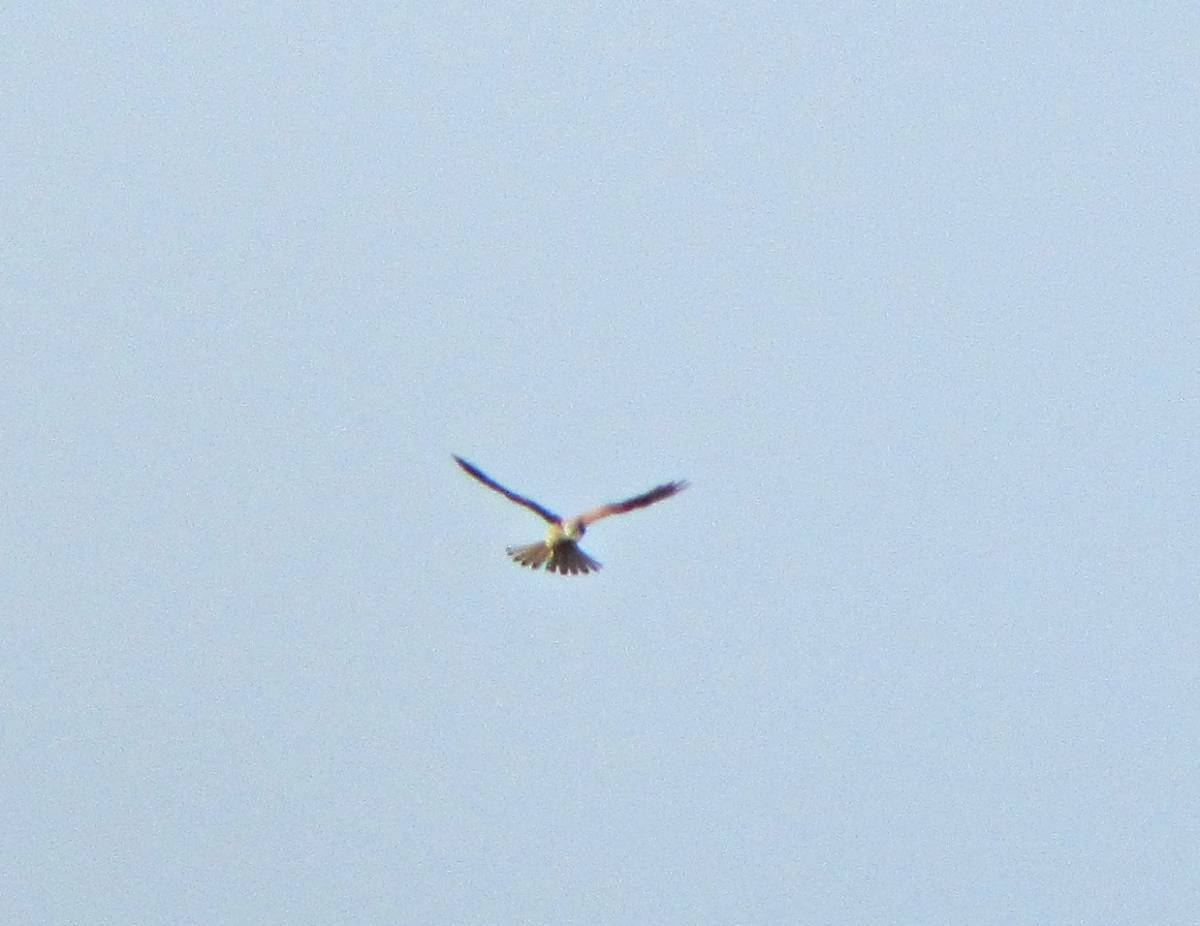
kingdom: Animalia
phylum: Chordata
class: Aves
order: Falconiformes
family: Falconidae
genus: Falco
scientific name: Falco tinnunculus
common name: Common kestrel
